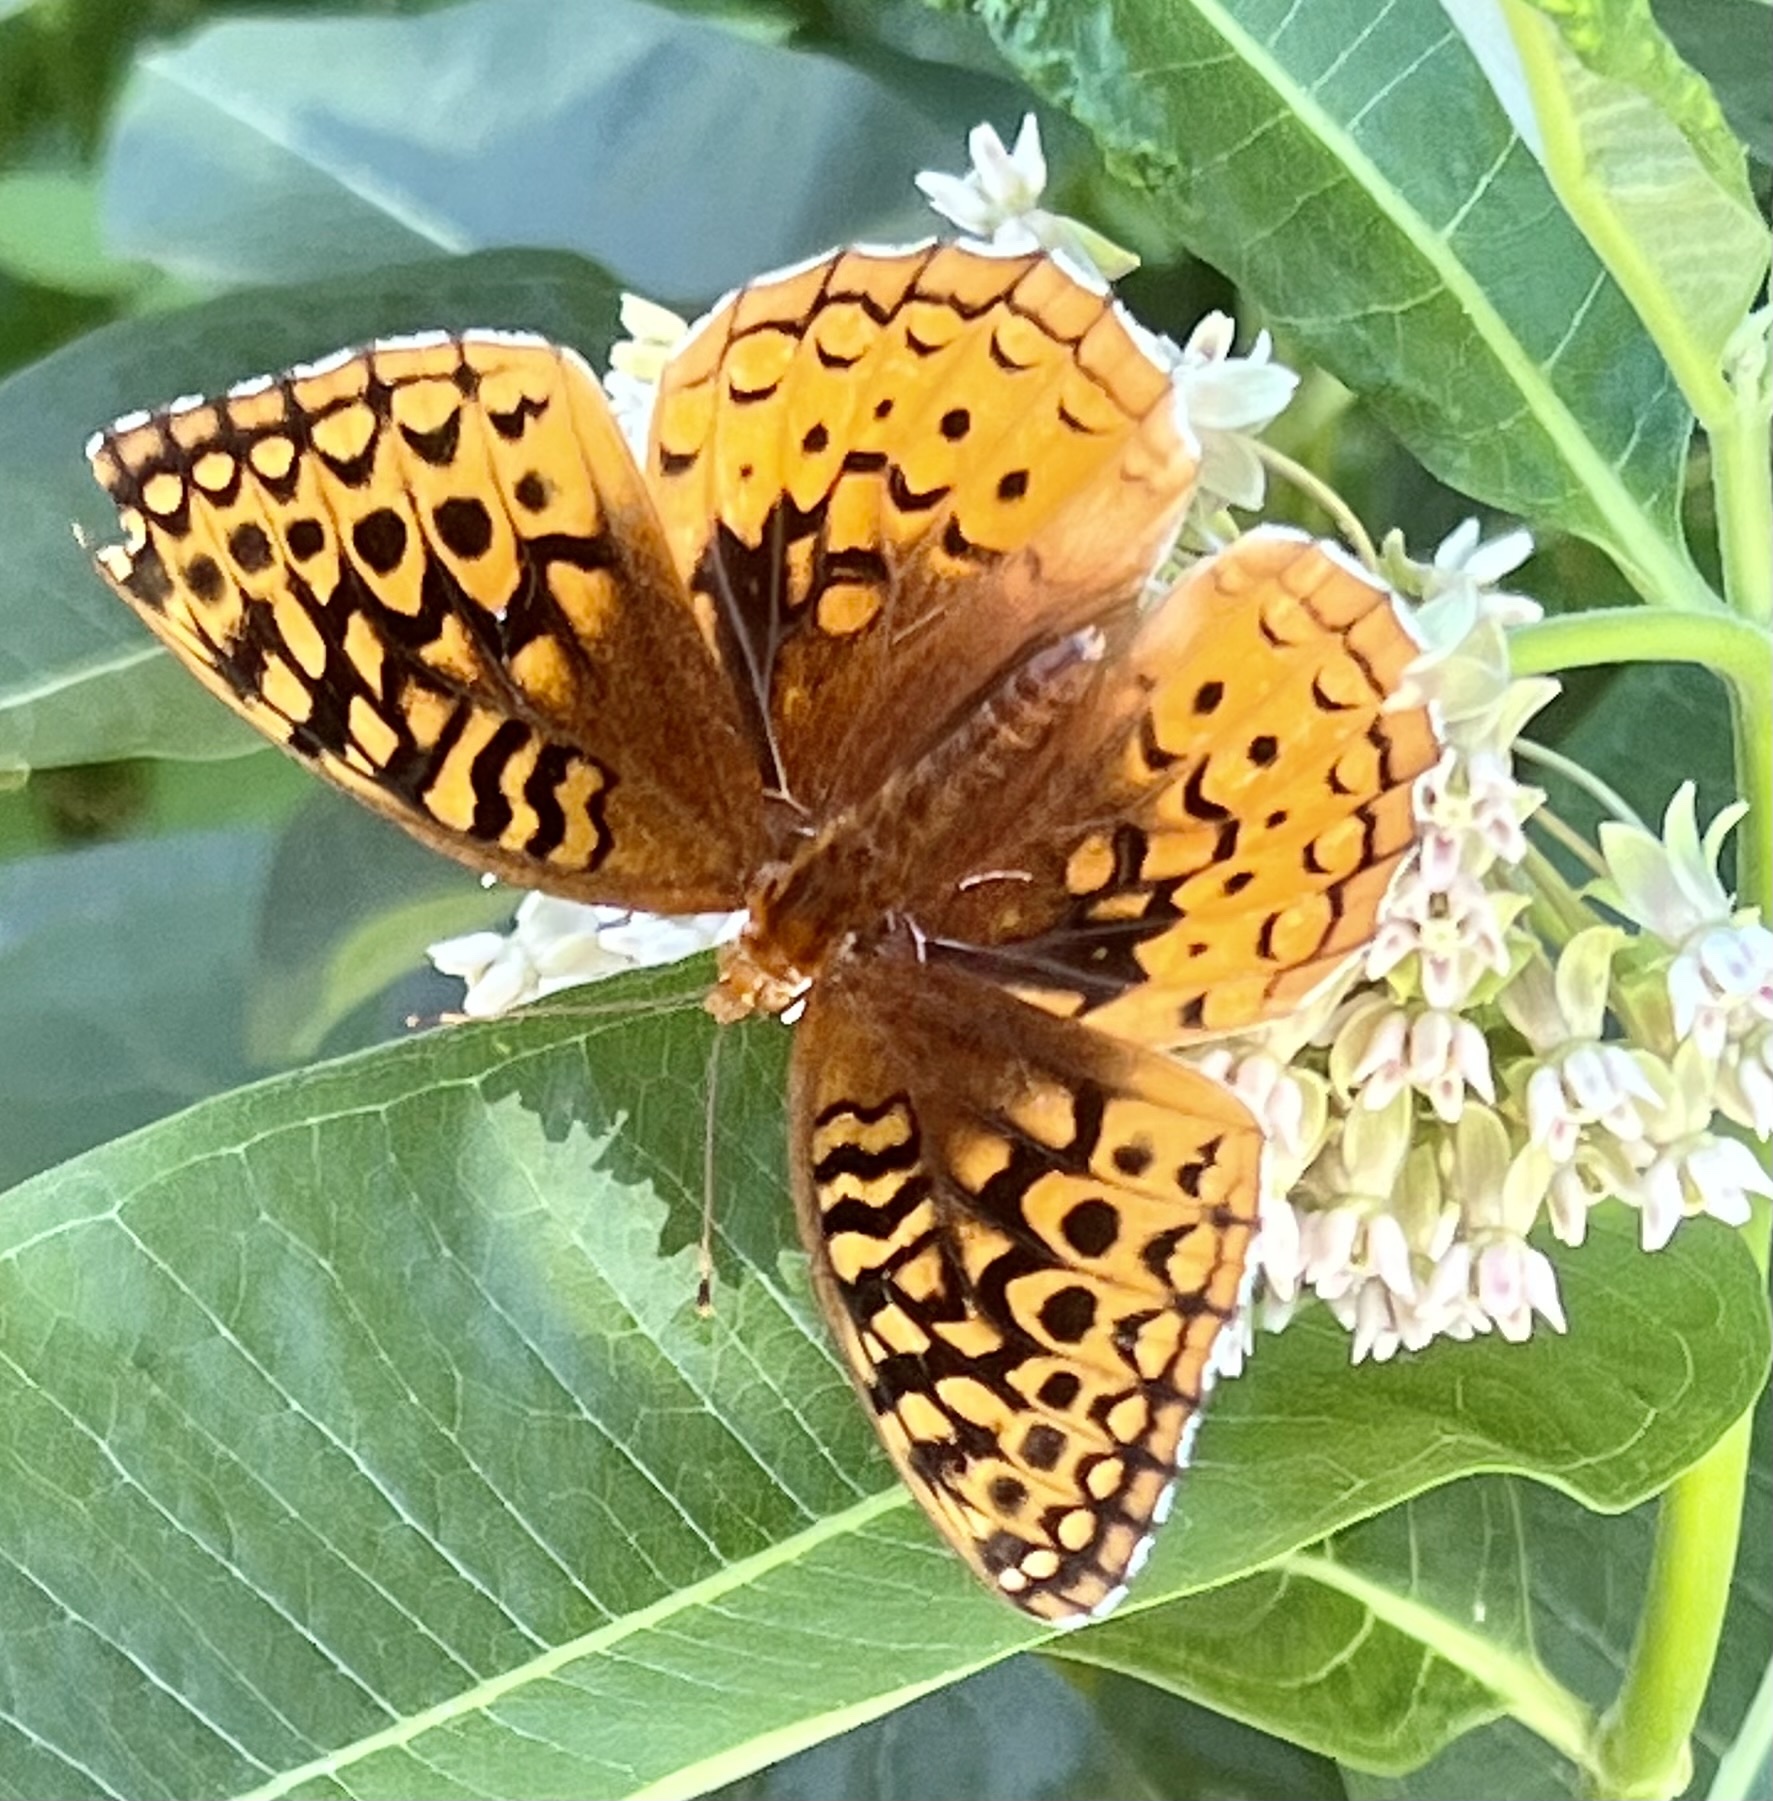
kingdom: Animalia
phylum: Arthropoda
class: Insecta
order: Lepidoptera
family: Nymphalidae
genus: Speyeria
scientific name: Speyeria cybele
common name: Great spangled fritillary
